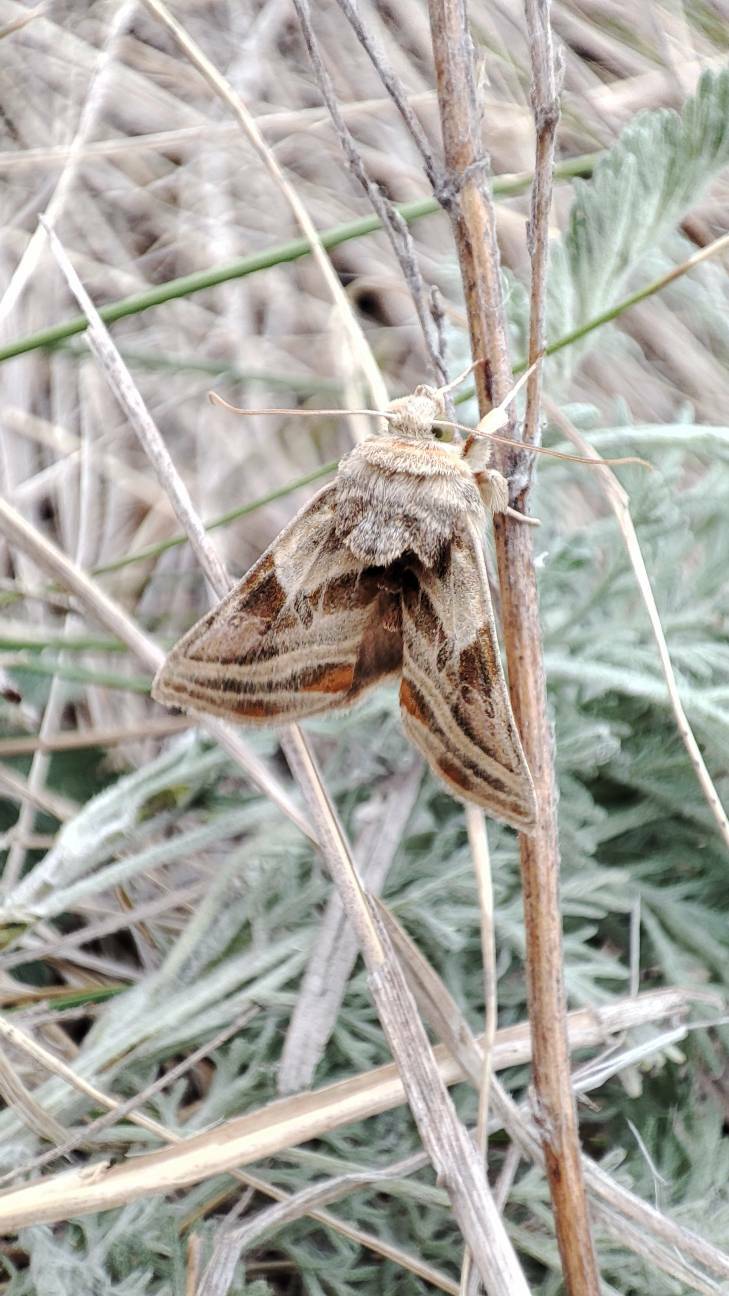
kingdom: Animalia
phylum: Arthropoda
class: Insecta
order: Lepidoptera
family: Noctuidae
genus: Euchalcia
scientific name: Euchalcia modestoides
